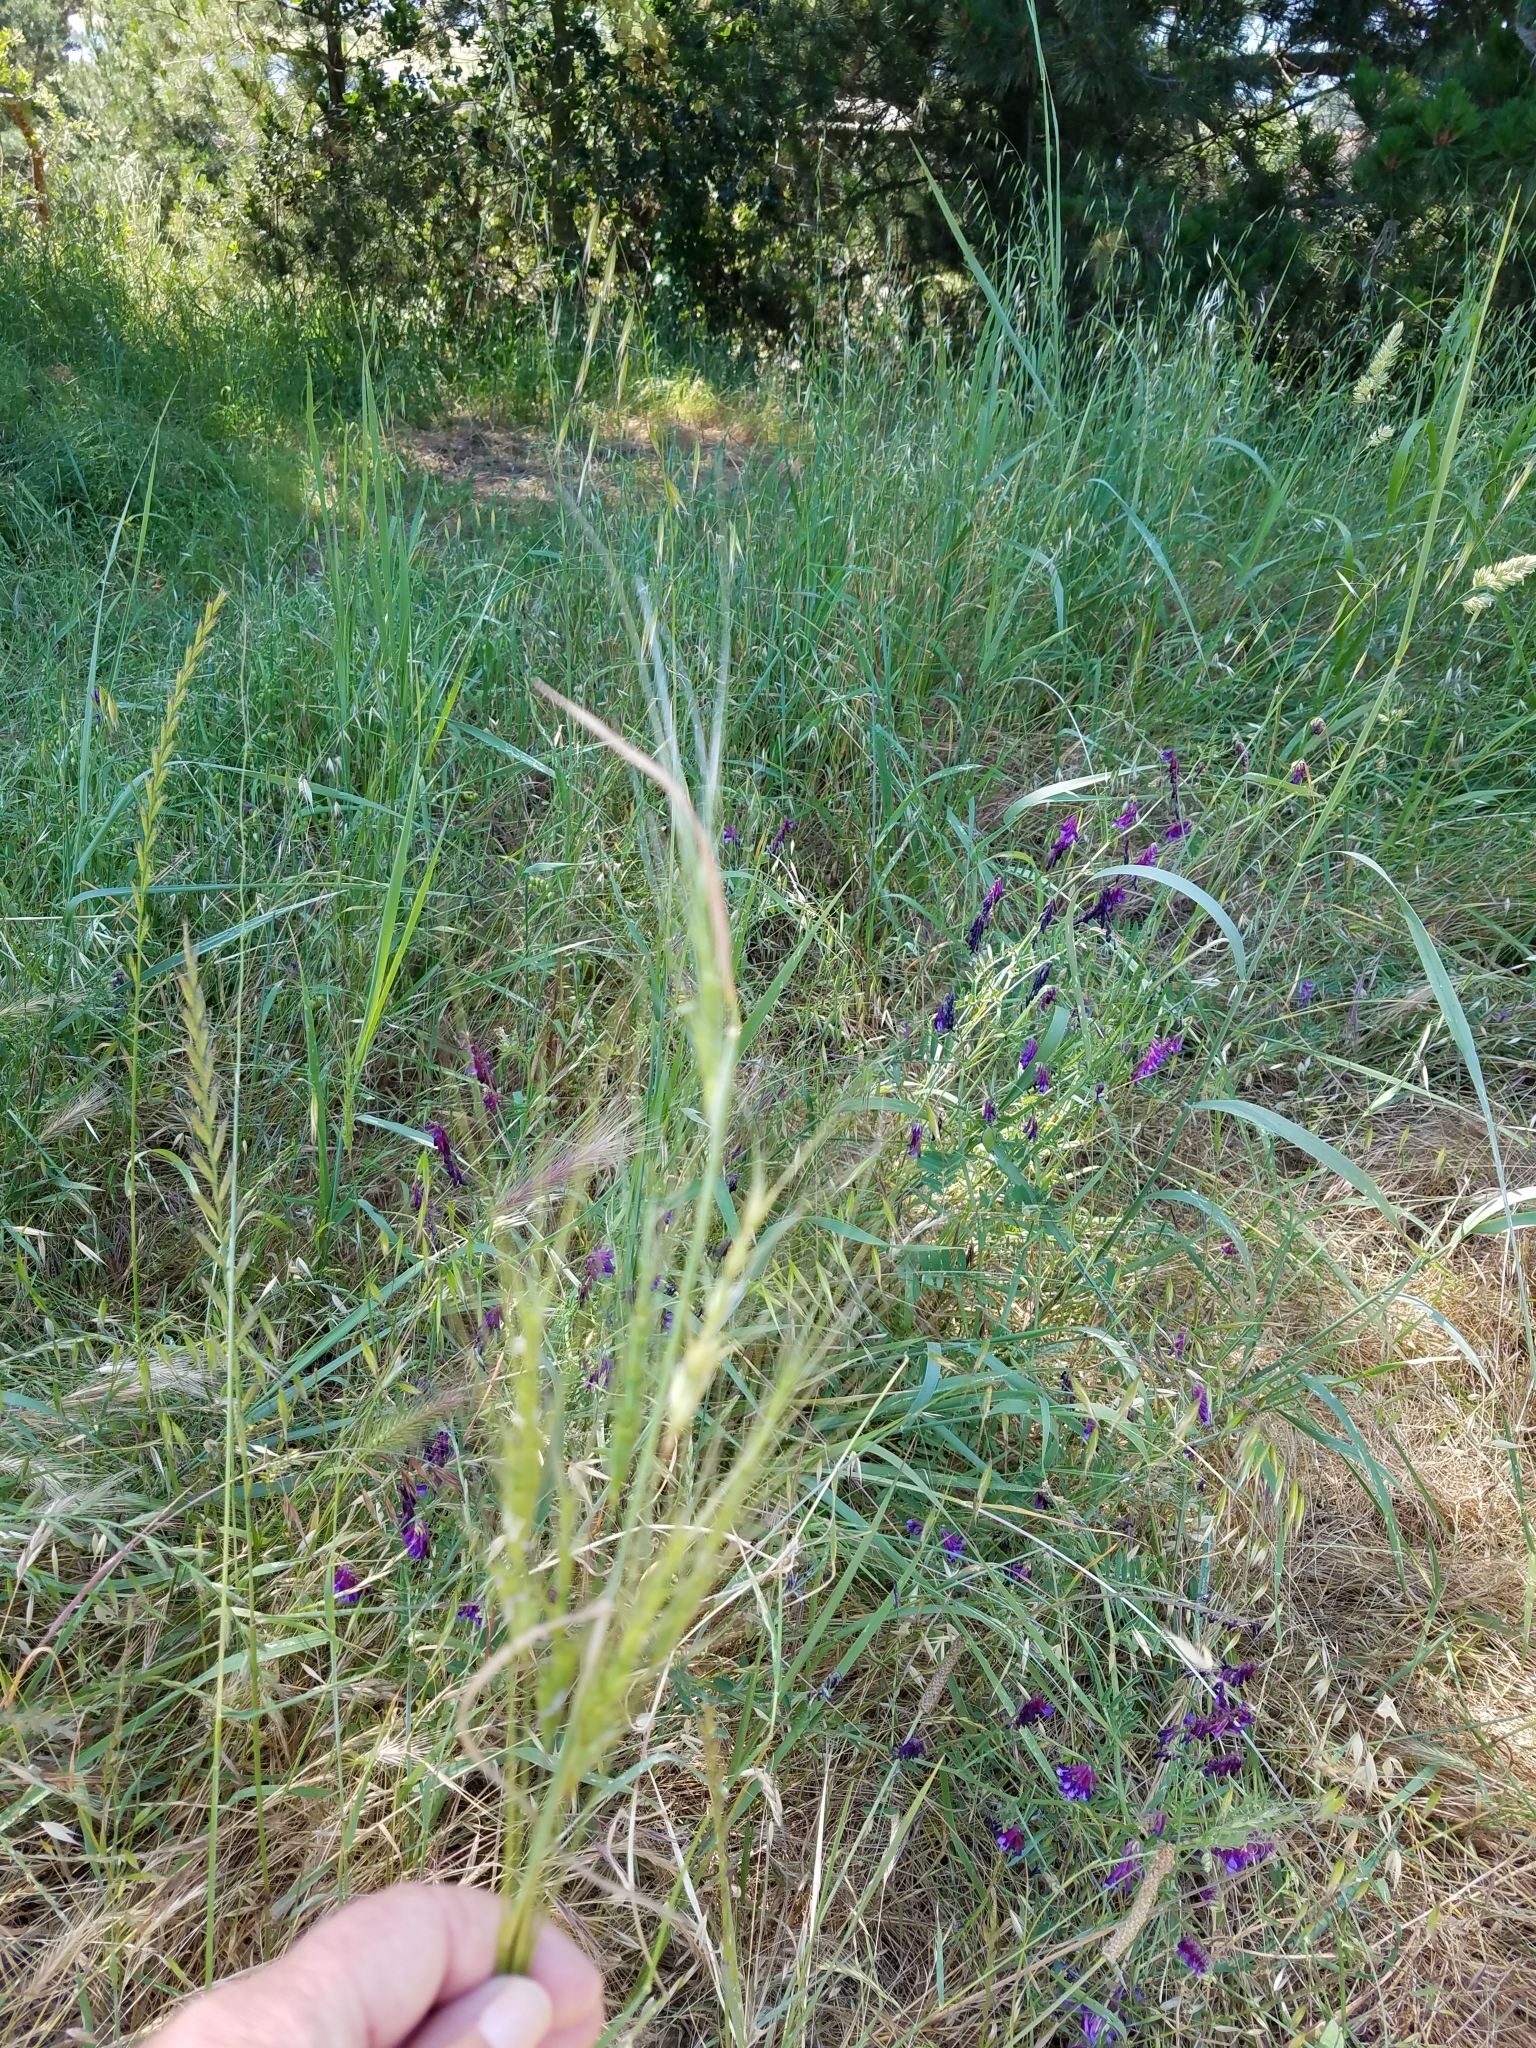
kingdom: Plantae
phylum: Tracheophyta
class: Liliopsida
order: Poales
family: Poaceae
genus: Aegilops
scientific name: Aegilops triuncialis
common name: Barb goat grass
